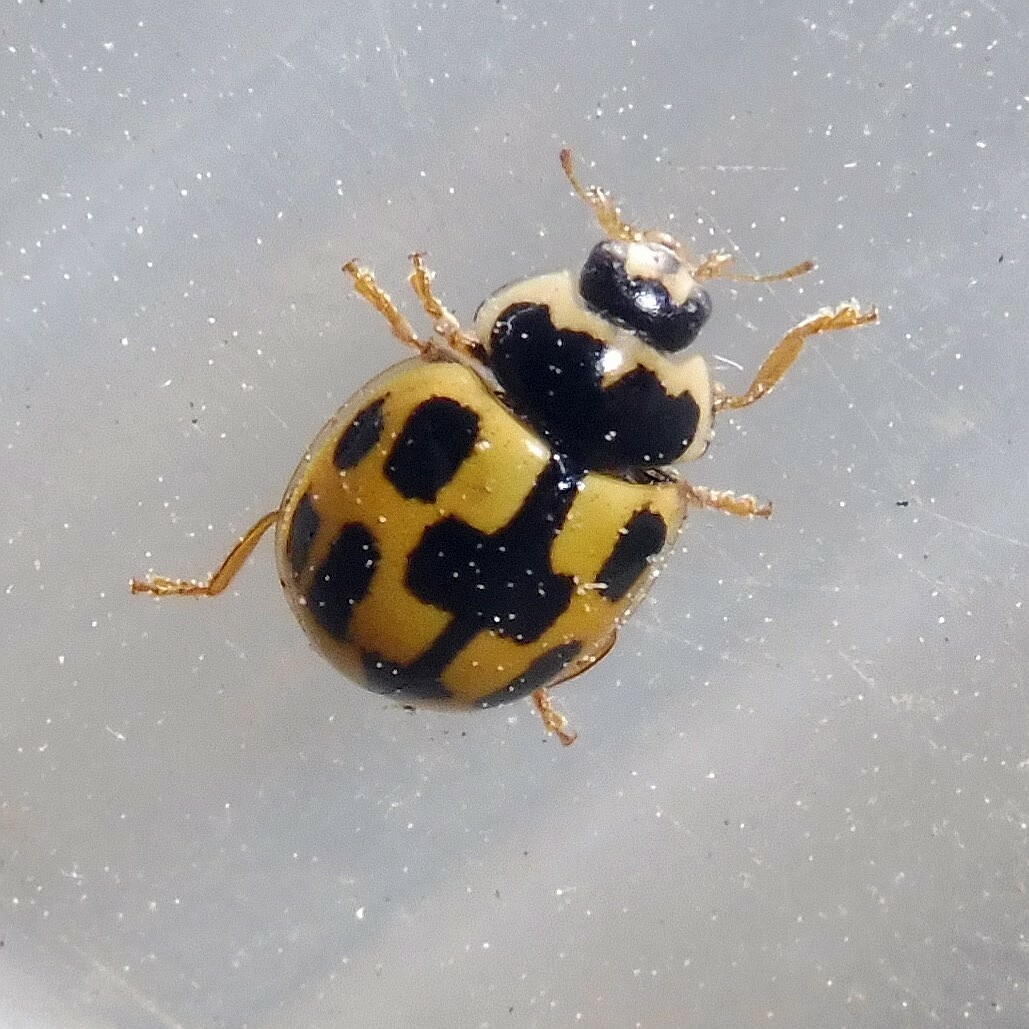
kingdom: Animalia
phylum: Arthropoda
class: Insecta
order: Coleoptera
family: Coccinellidae
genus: Propylaea
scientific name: Propylaea quatuordecimpunctata
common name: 14-spotted ladybird beetle
